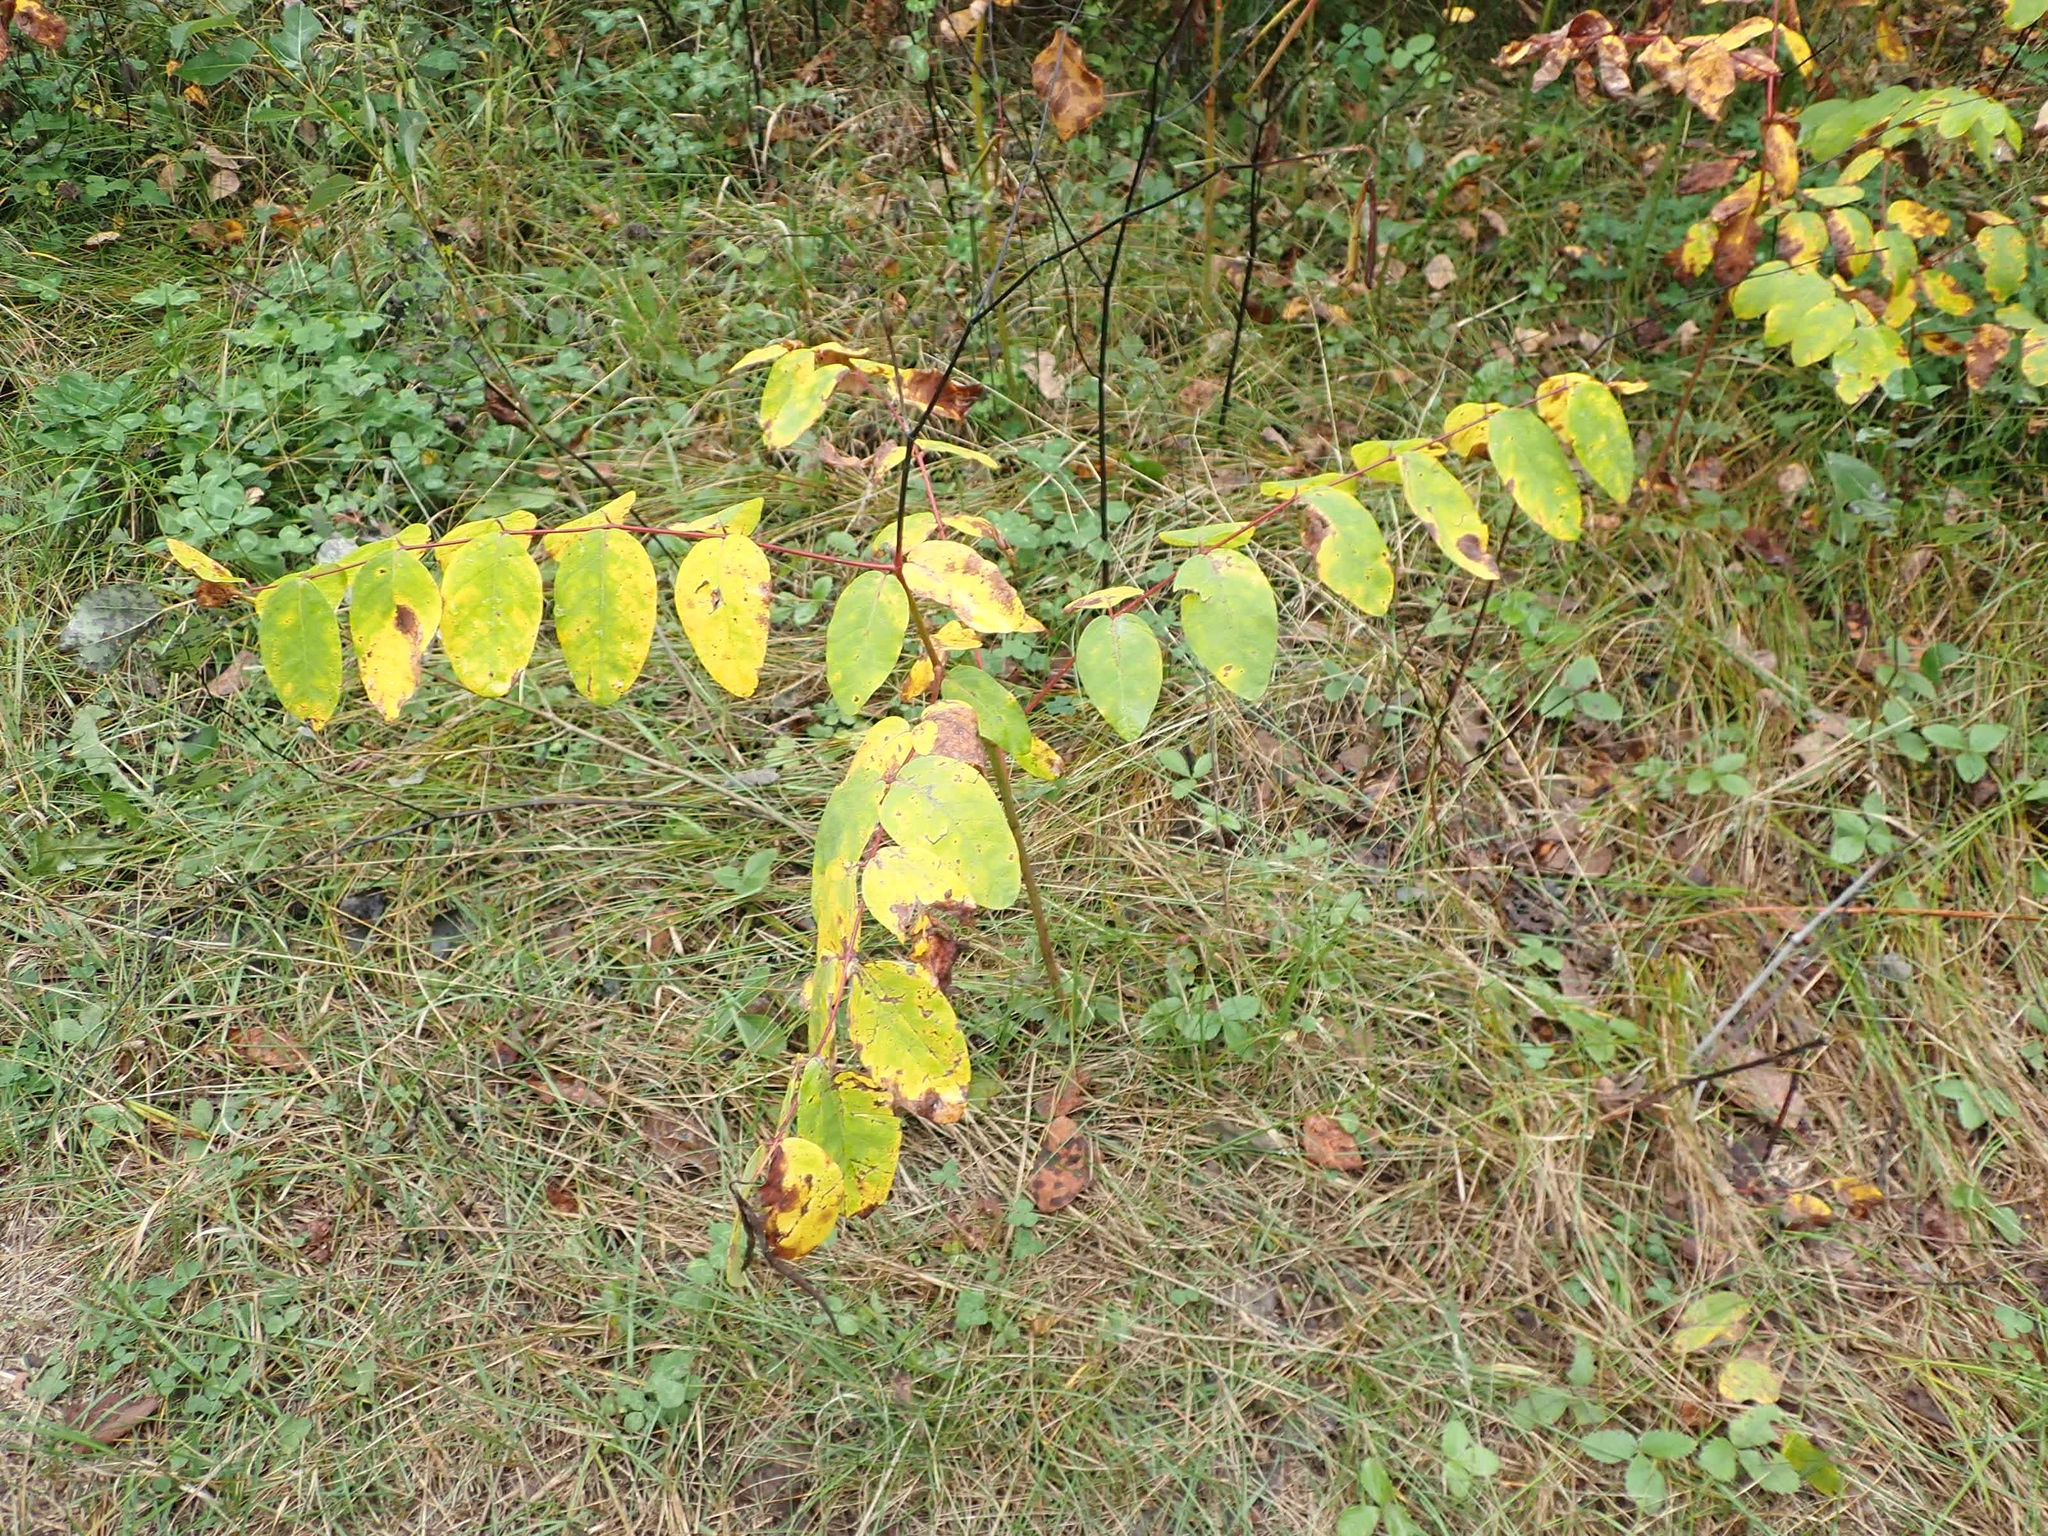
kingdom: Plantae
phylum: Tracheophyta
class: Magnoliopsida
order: Gentianales
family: Apocynaceae
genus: Apocynum
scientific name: Apocynum androsaemifolium
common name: Spreading dogbane
